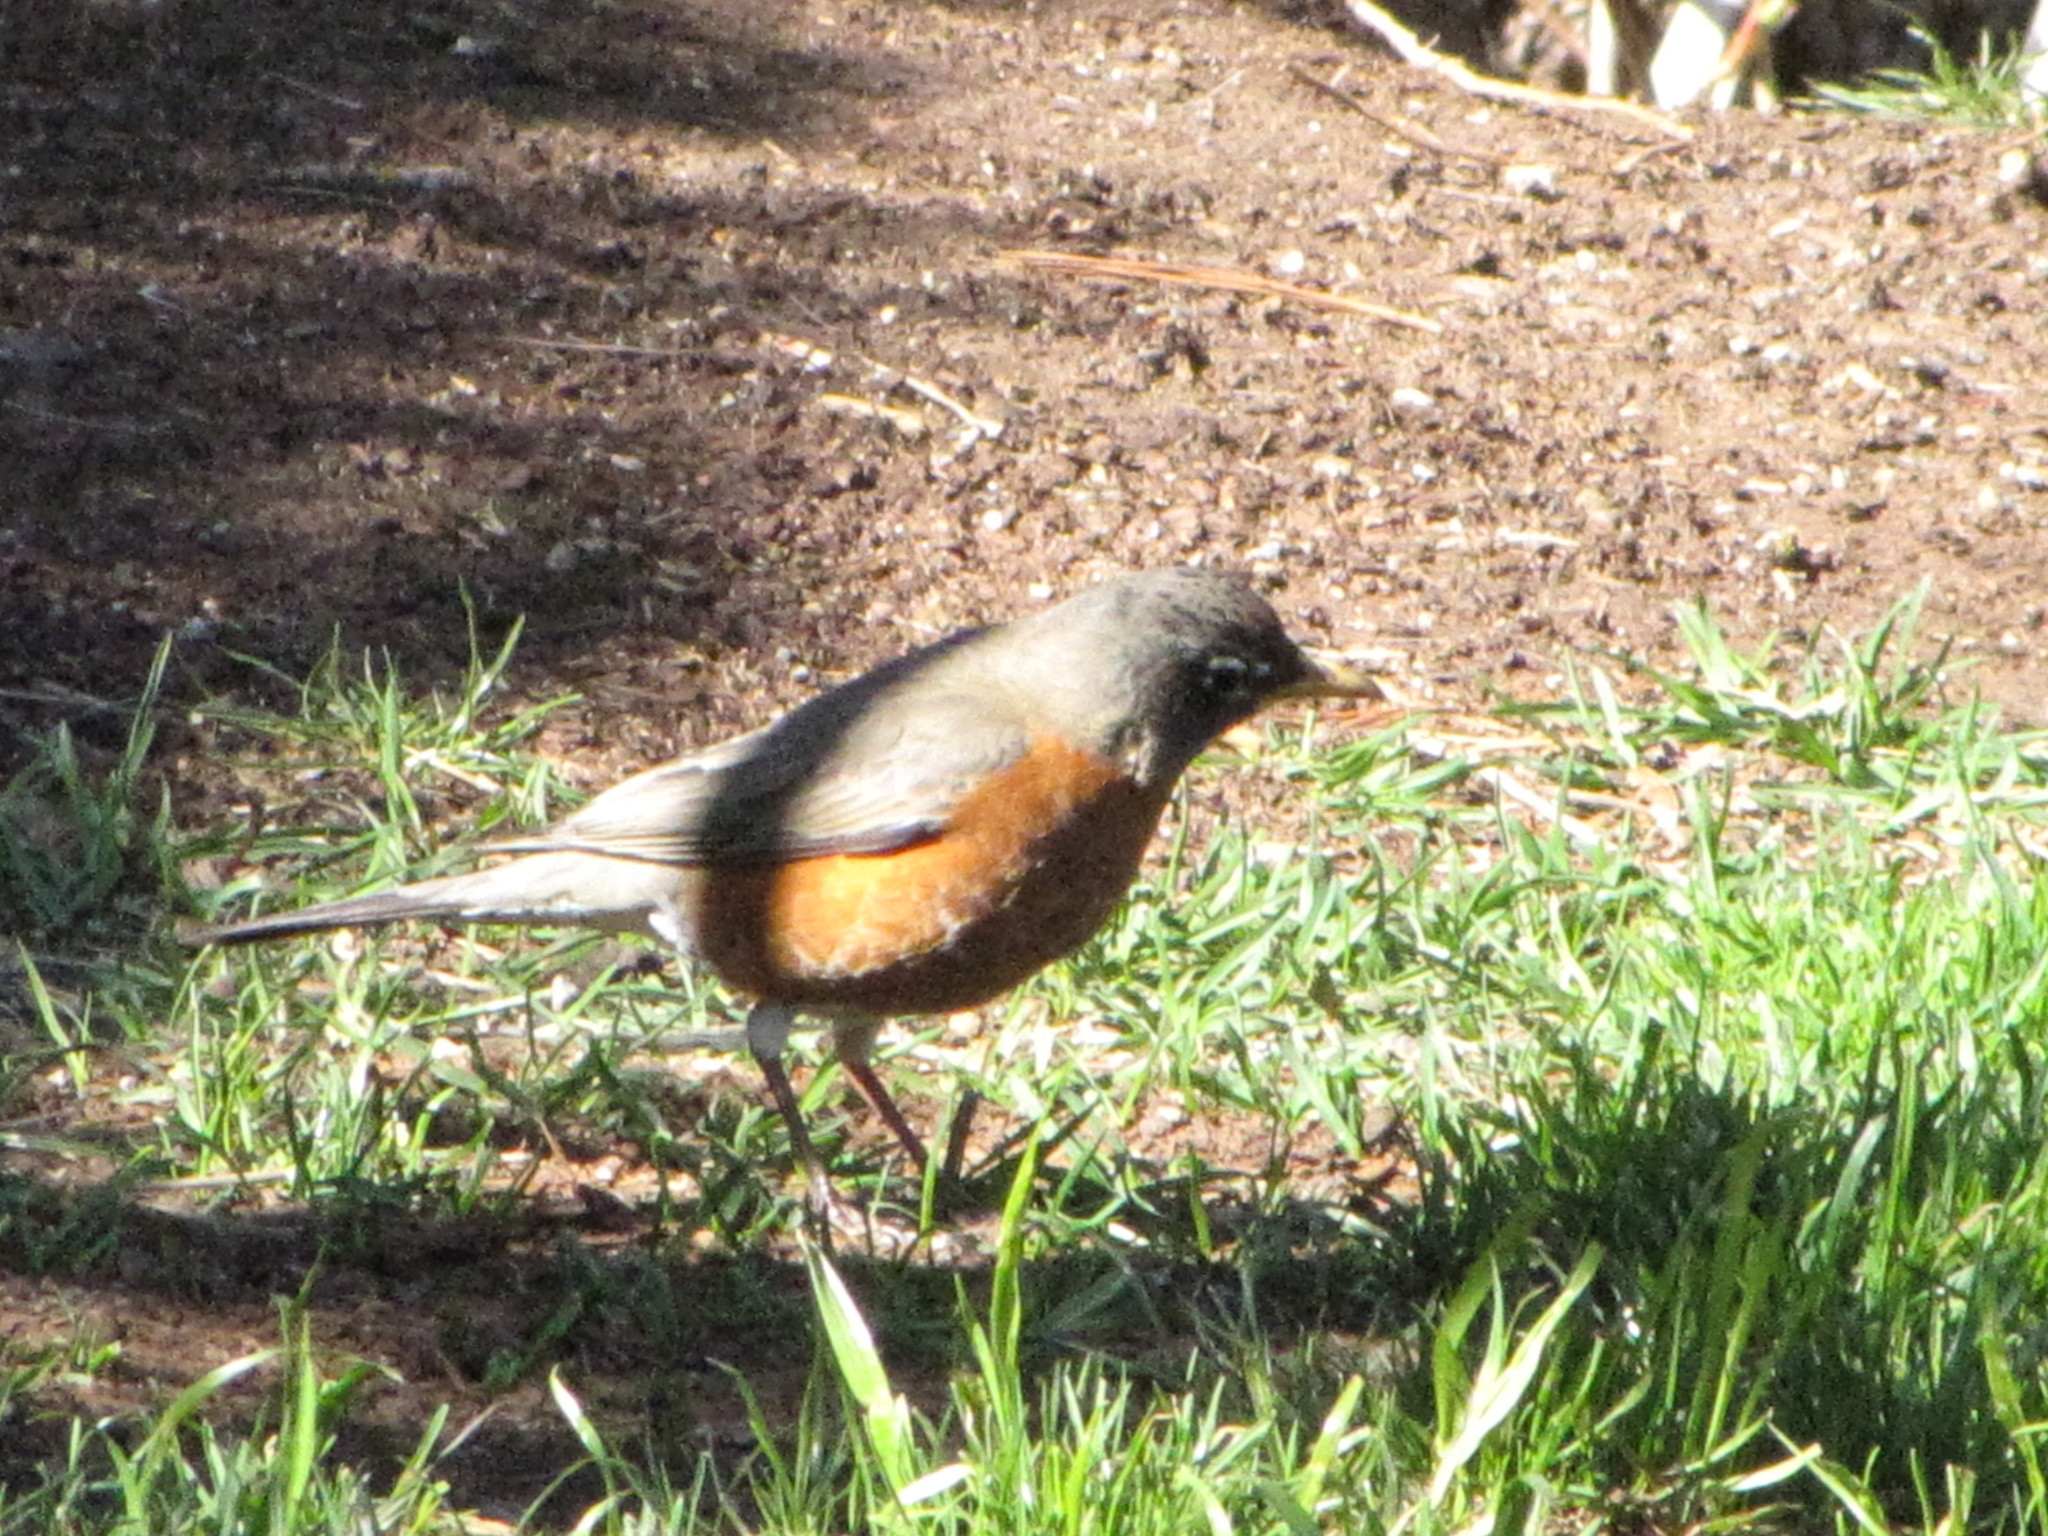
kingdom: Animalia
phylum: Chordata
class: Aves
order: Passeriformes
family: Turdidae
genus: Turdus
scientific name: Turdus migratorius
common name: American robin
